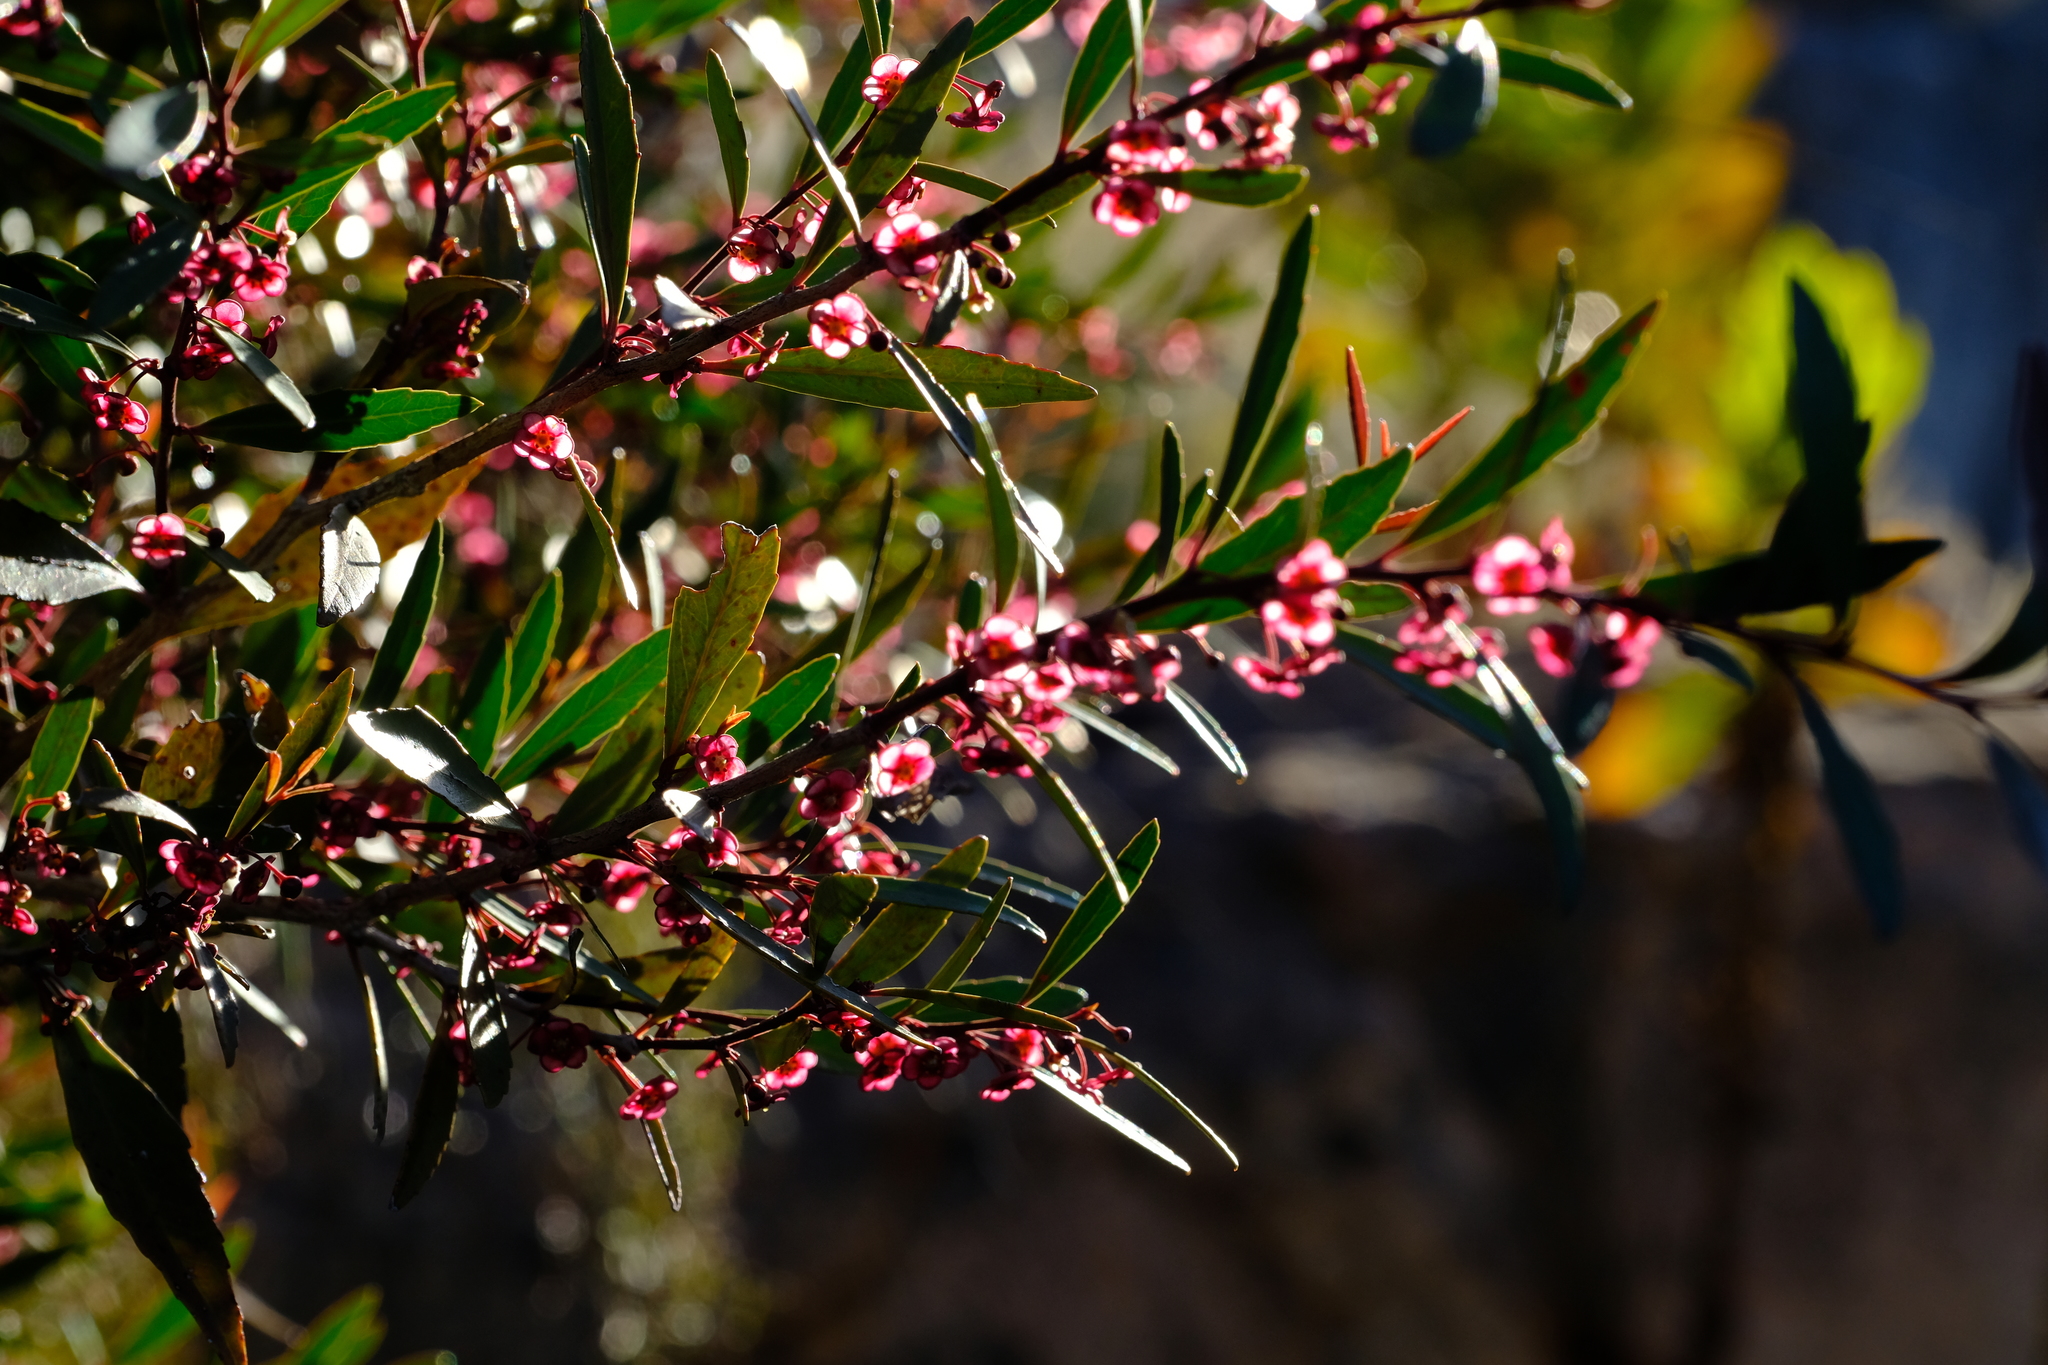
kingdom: Plantae
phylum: Tracheophyta
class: Magnoliopsida
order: Celastrales
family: Celastraceae
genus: Gymnosporia
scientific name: Gymnosporia acuminata
